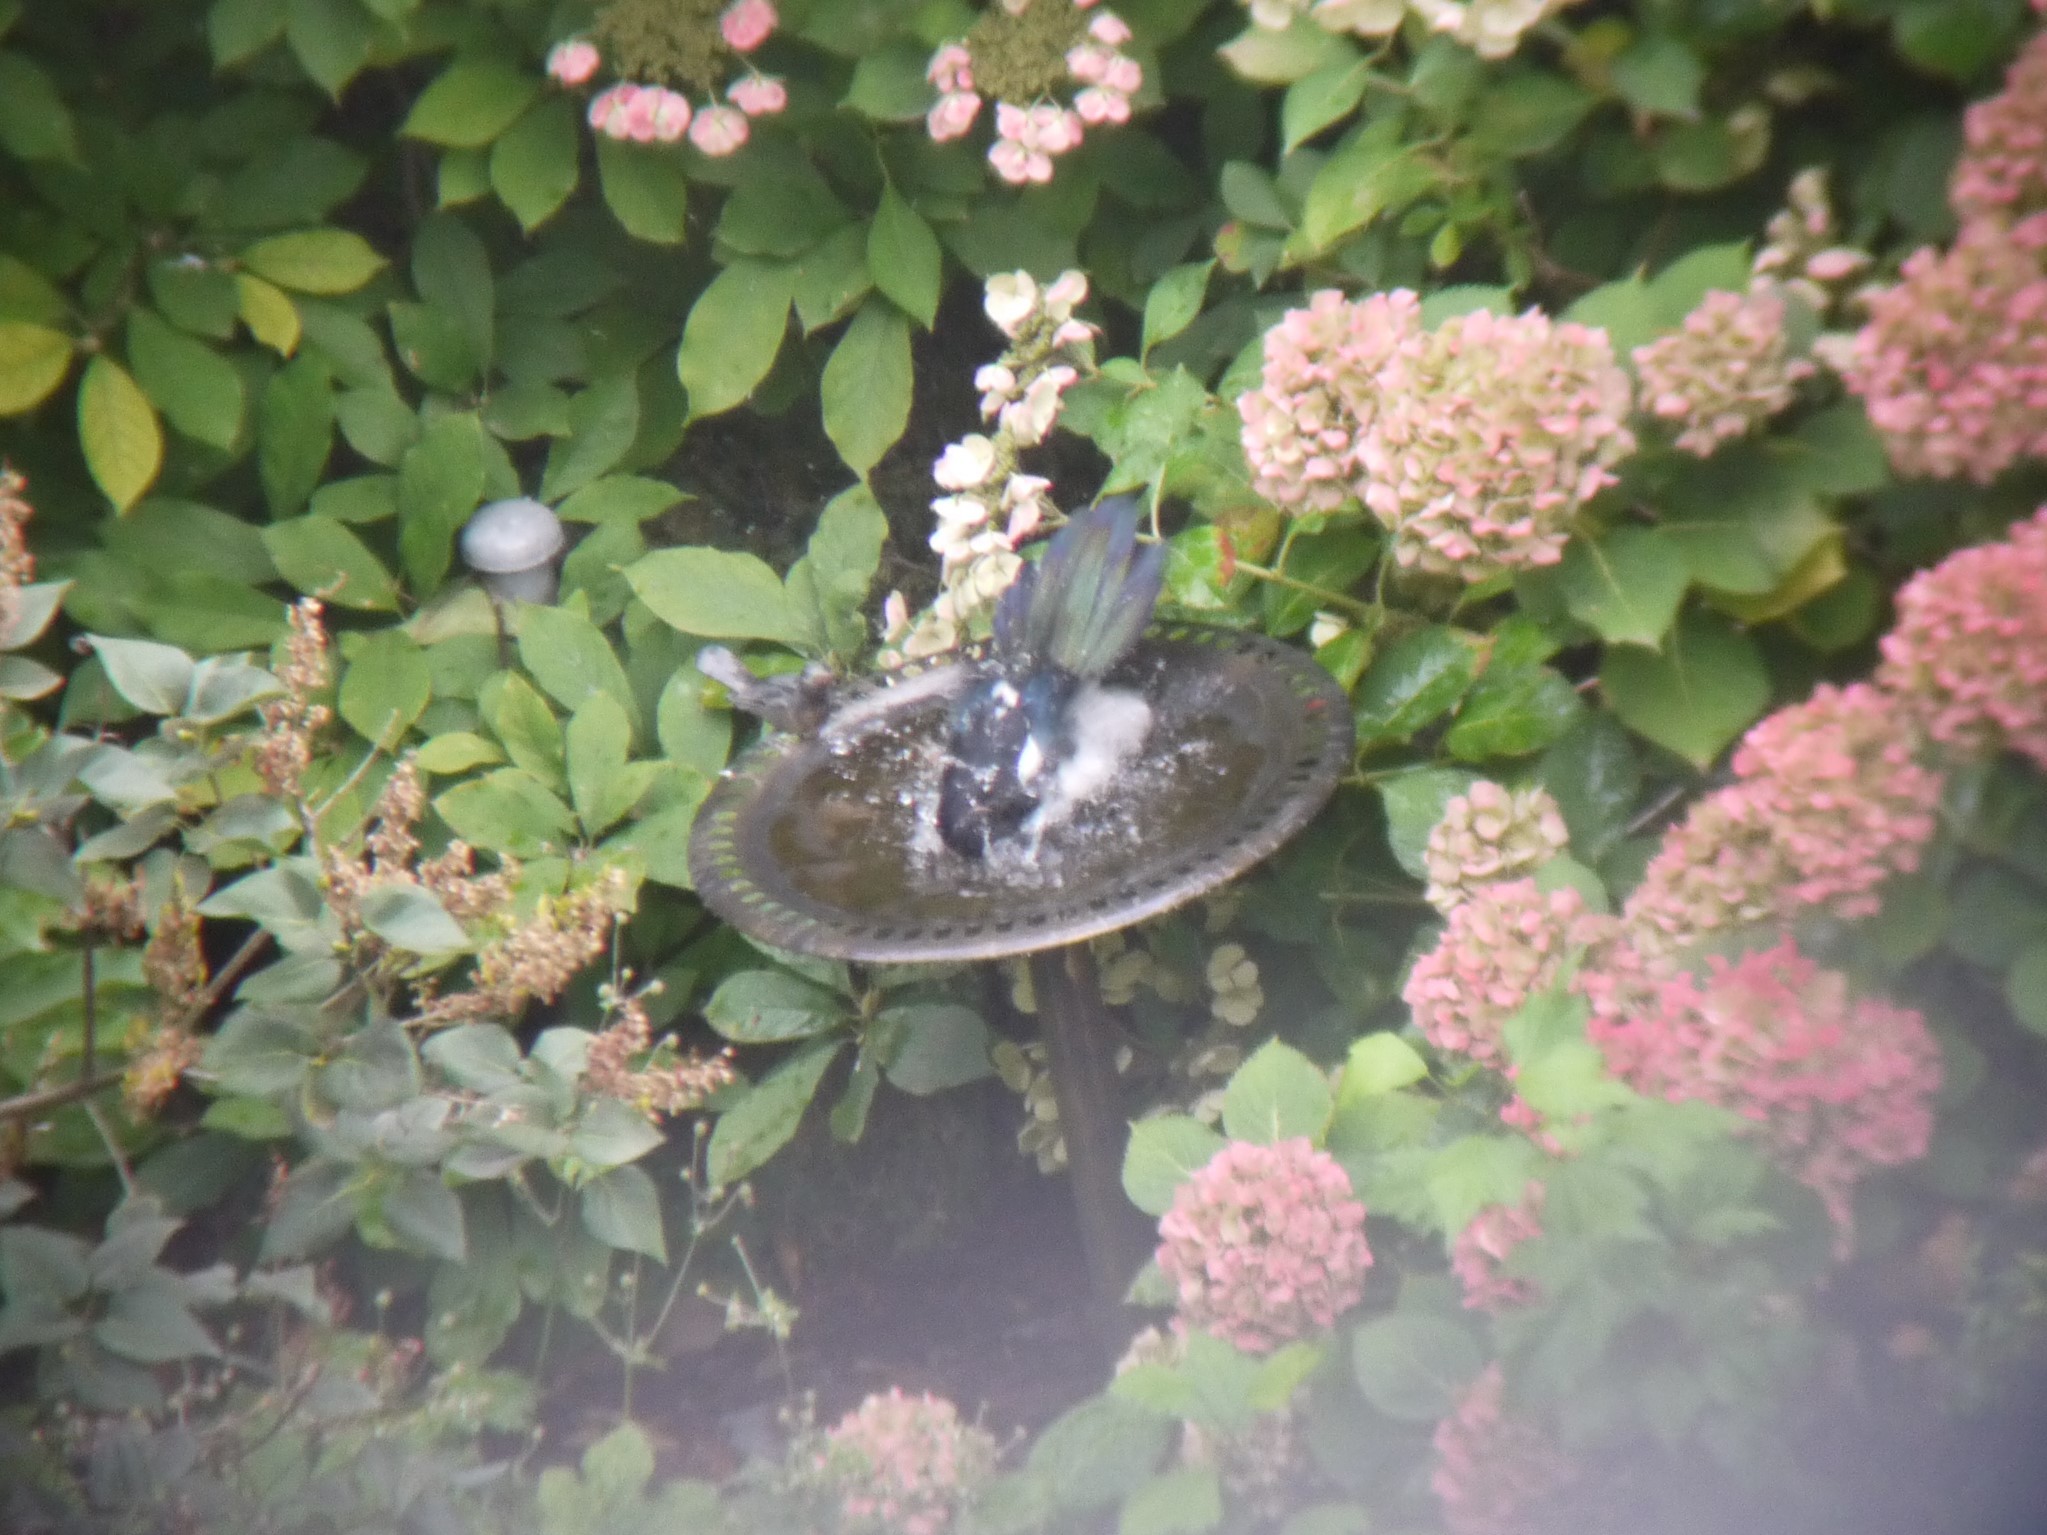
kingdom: Animalia
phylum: Chordata
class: Aves
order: Passeriformes
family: Corvidae
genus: Pica
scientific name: Pica pica
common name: Eurasian magpie
